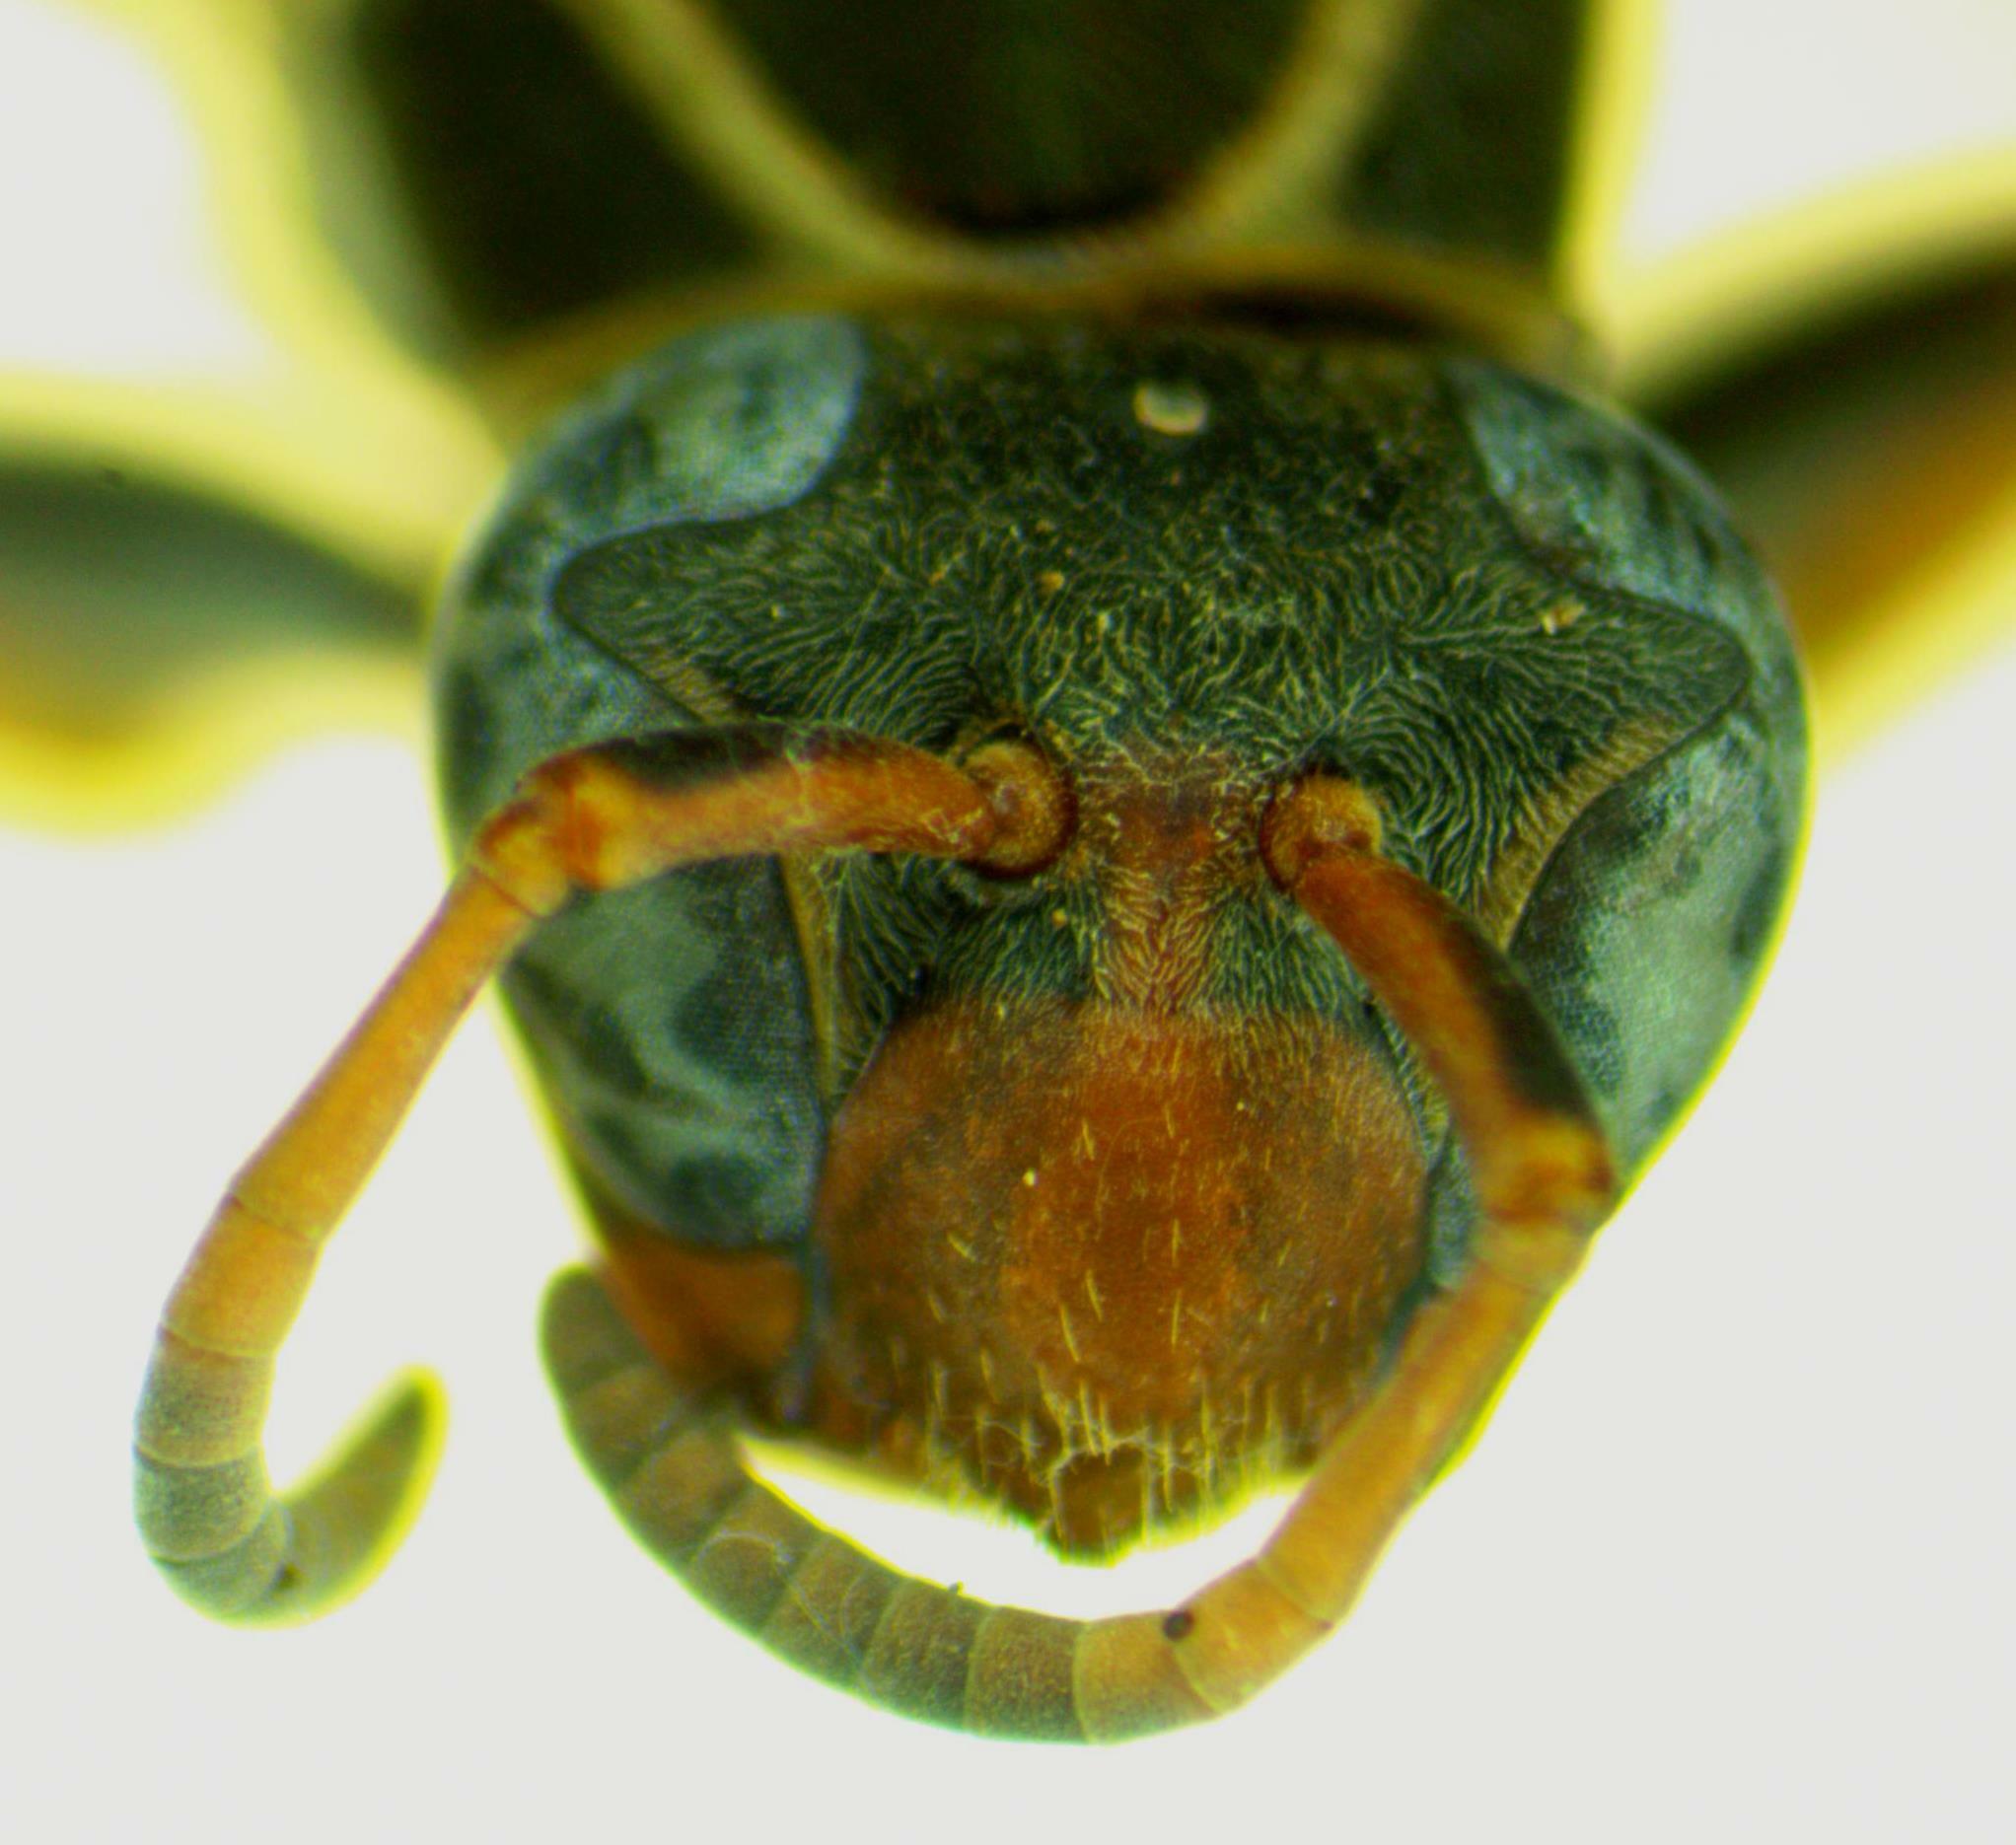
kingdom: Animalia
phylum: Arthropoda
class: Insecta
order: Hymenoptera
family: Eumenidae
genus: Polistes
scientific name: Polistes pacificus
